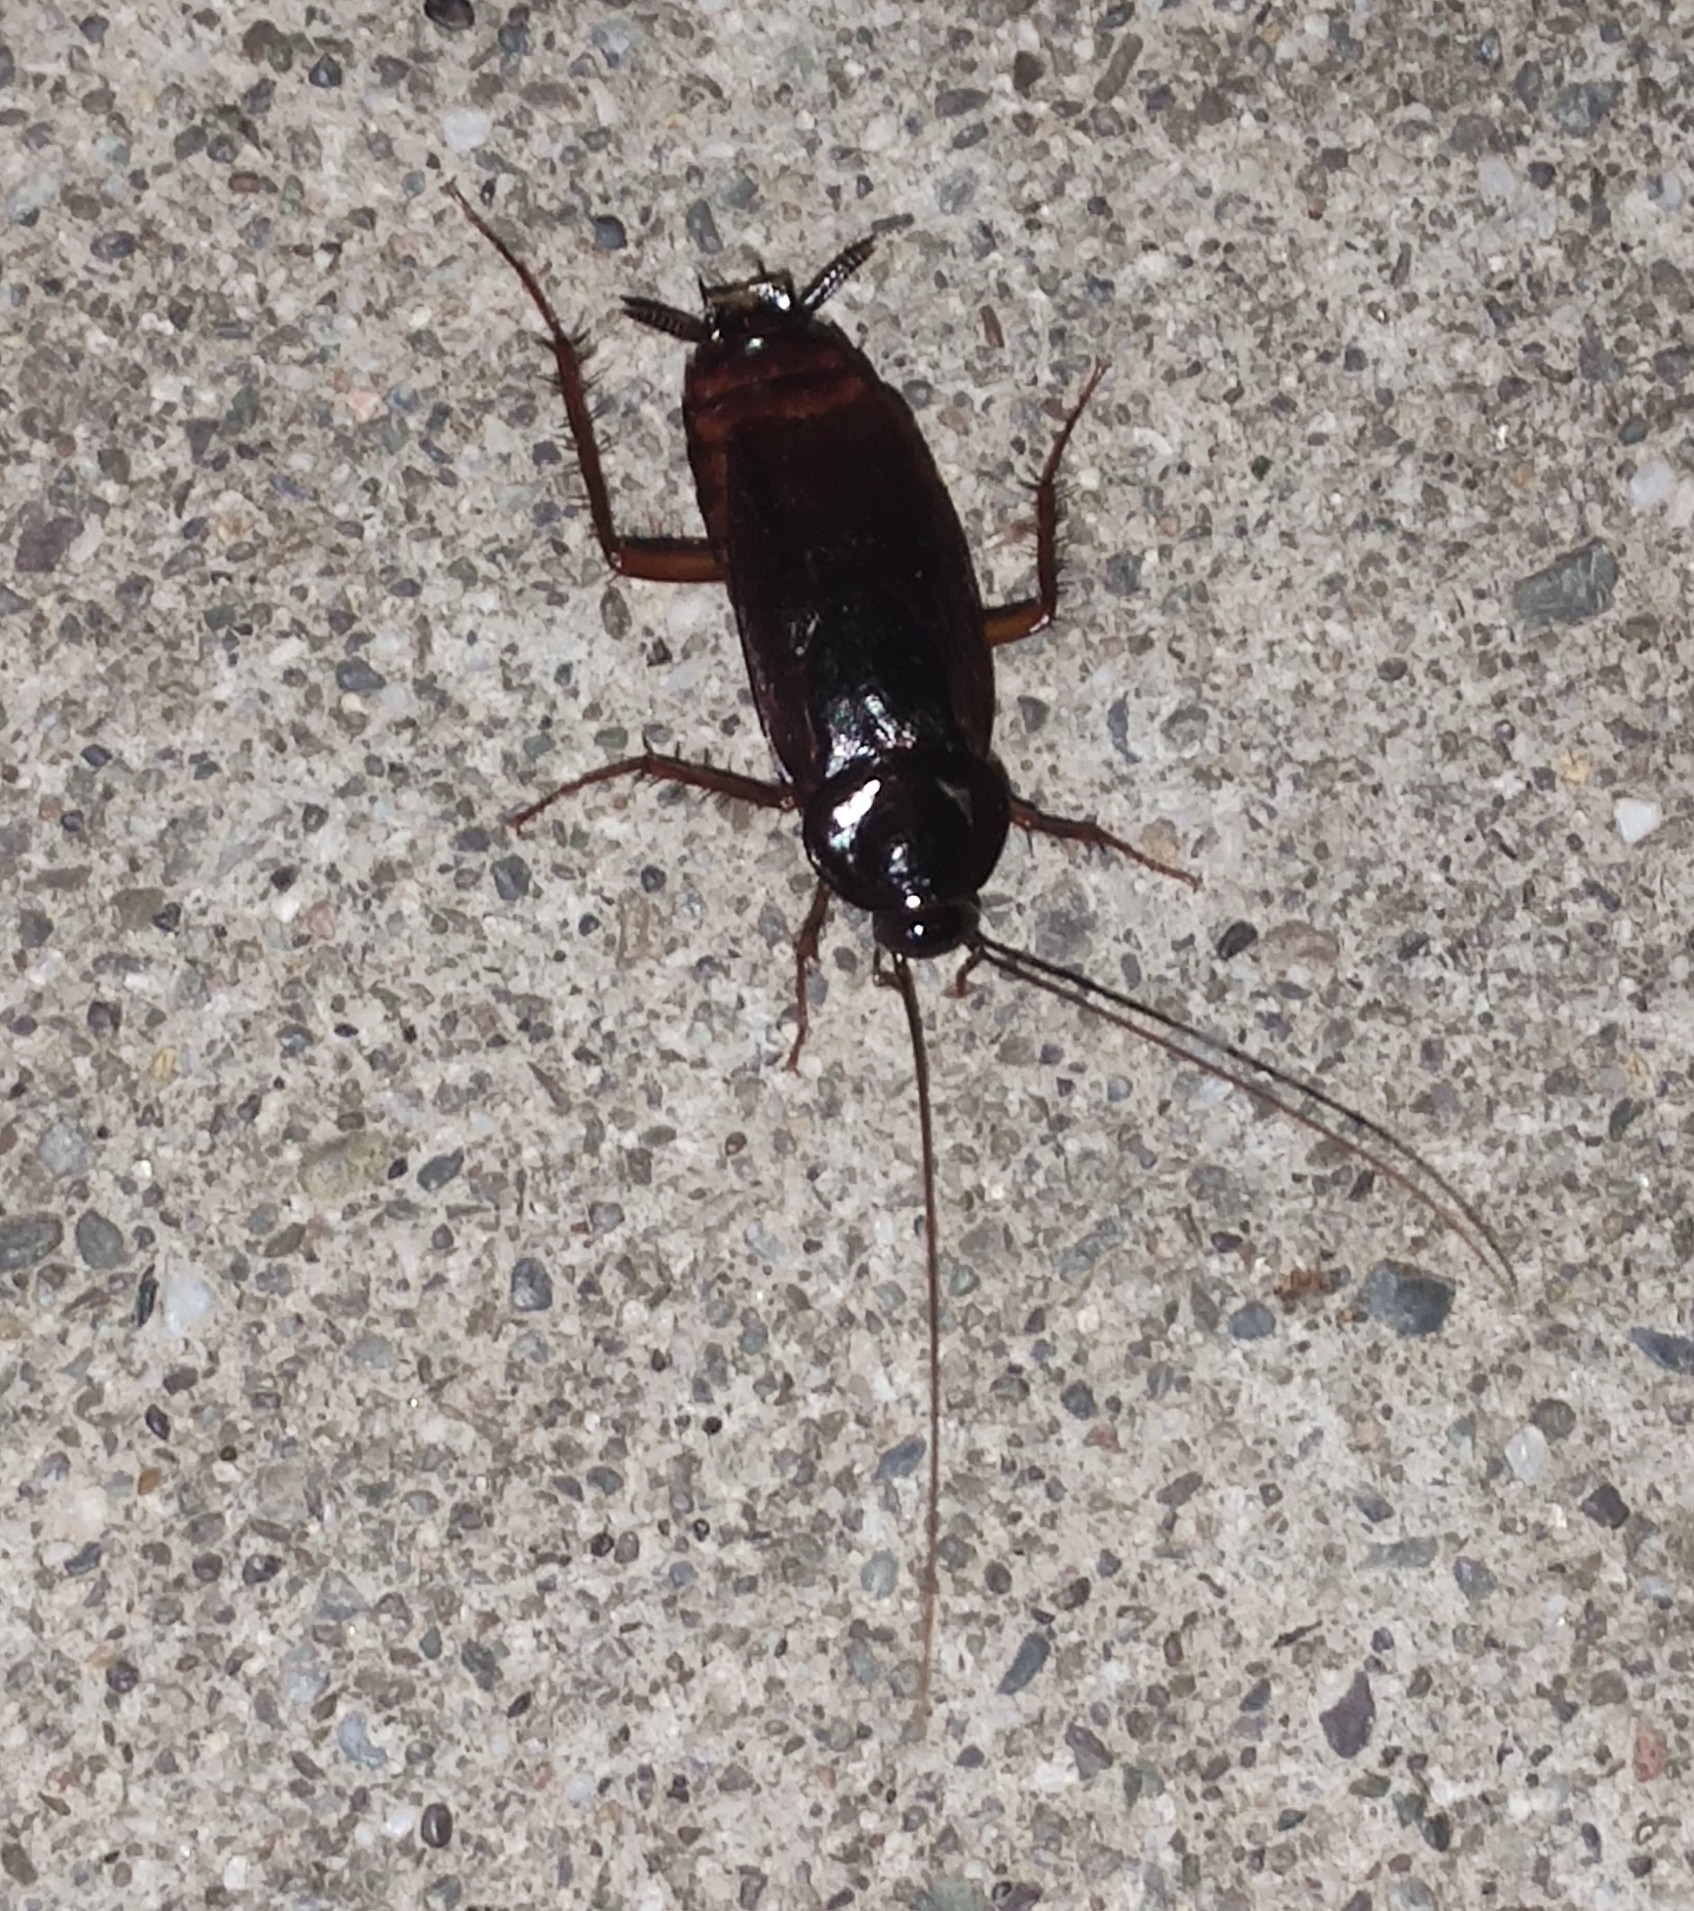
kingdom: Animalia
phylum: Arthropoda
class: Insecta
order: Blattodea
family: Blattidae
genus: Blatta
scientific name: Blatta orientalis
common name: Oriental cockroach
